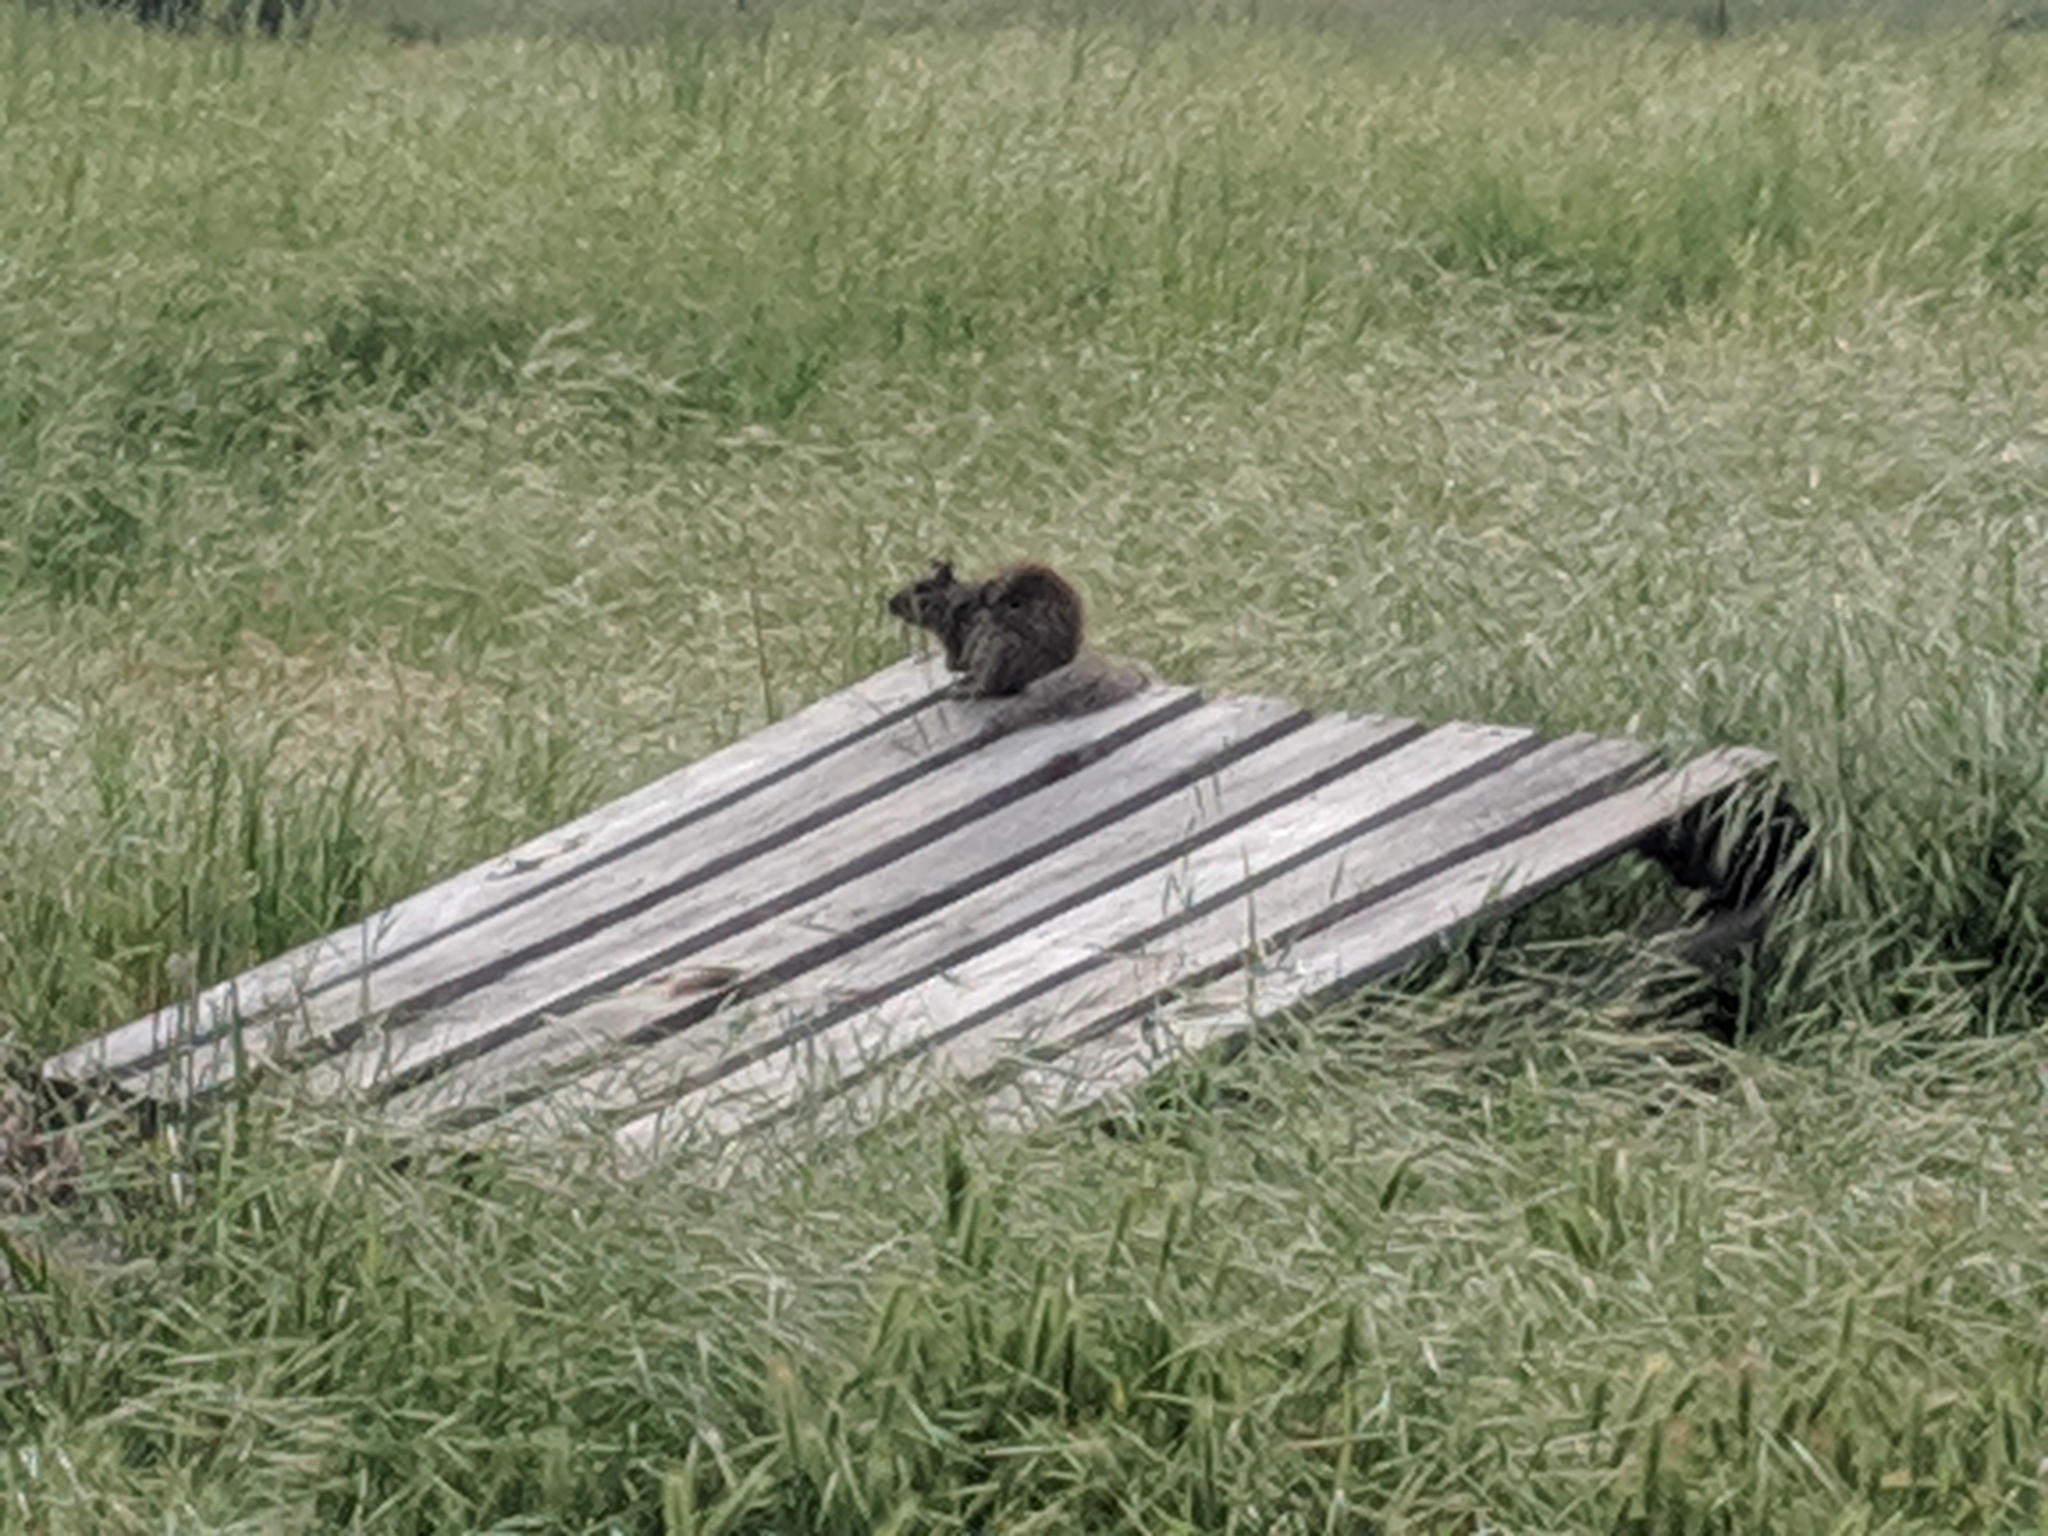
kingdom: Animalia
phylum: Chordata
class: Mammalia
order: Rodentia
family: Sciuridae
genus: Otospermophilus
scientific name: Otospermophilus beecheyi
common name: California ground squirrel
